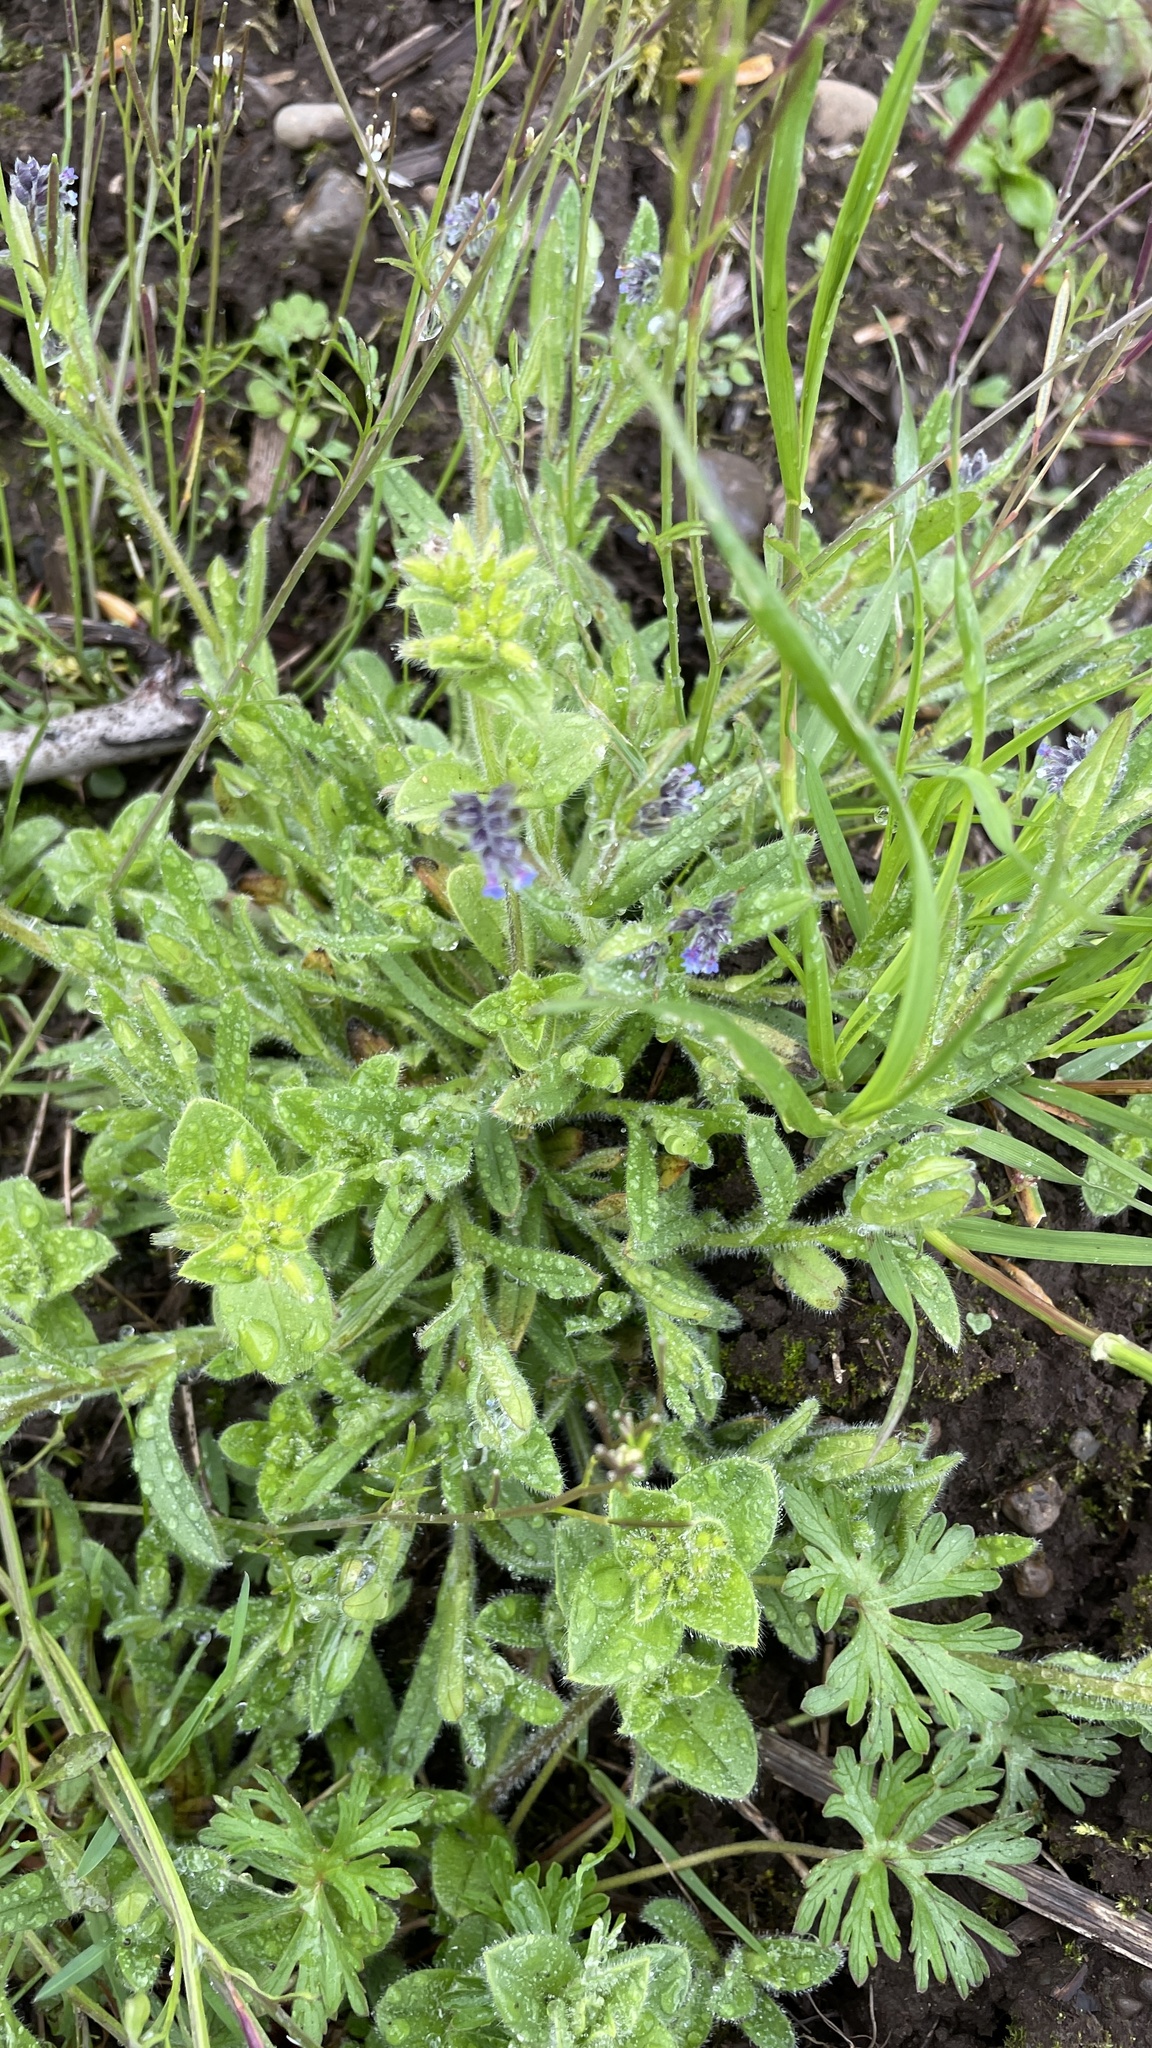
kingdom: Plantae
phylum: Tracheophyta
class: Magnoliopsida
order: Boraginales
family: Boraginaceae
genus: Myosotis
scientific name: Myosotis discolor
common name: Changing forget-me-not
